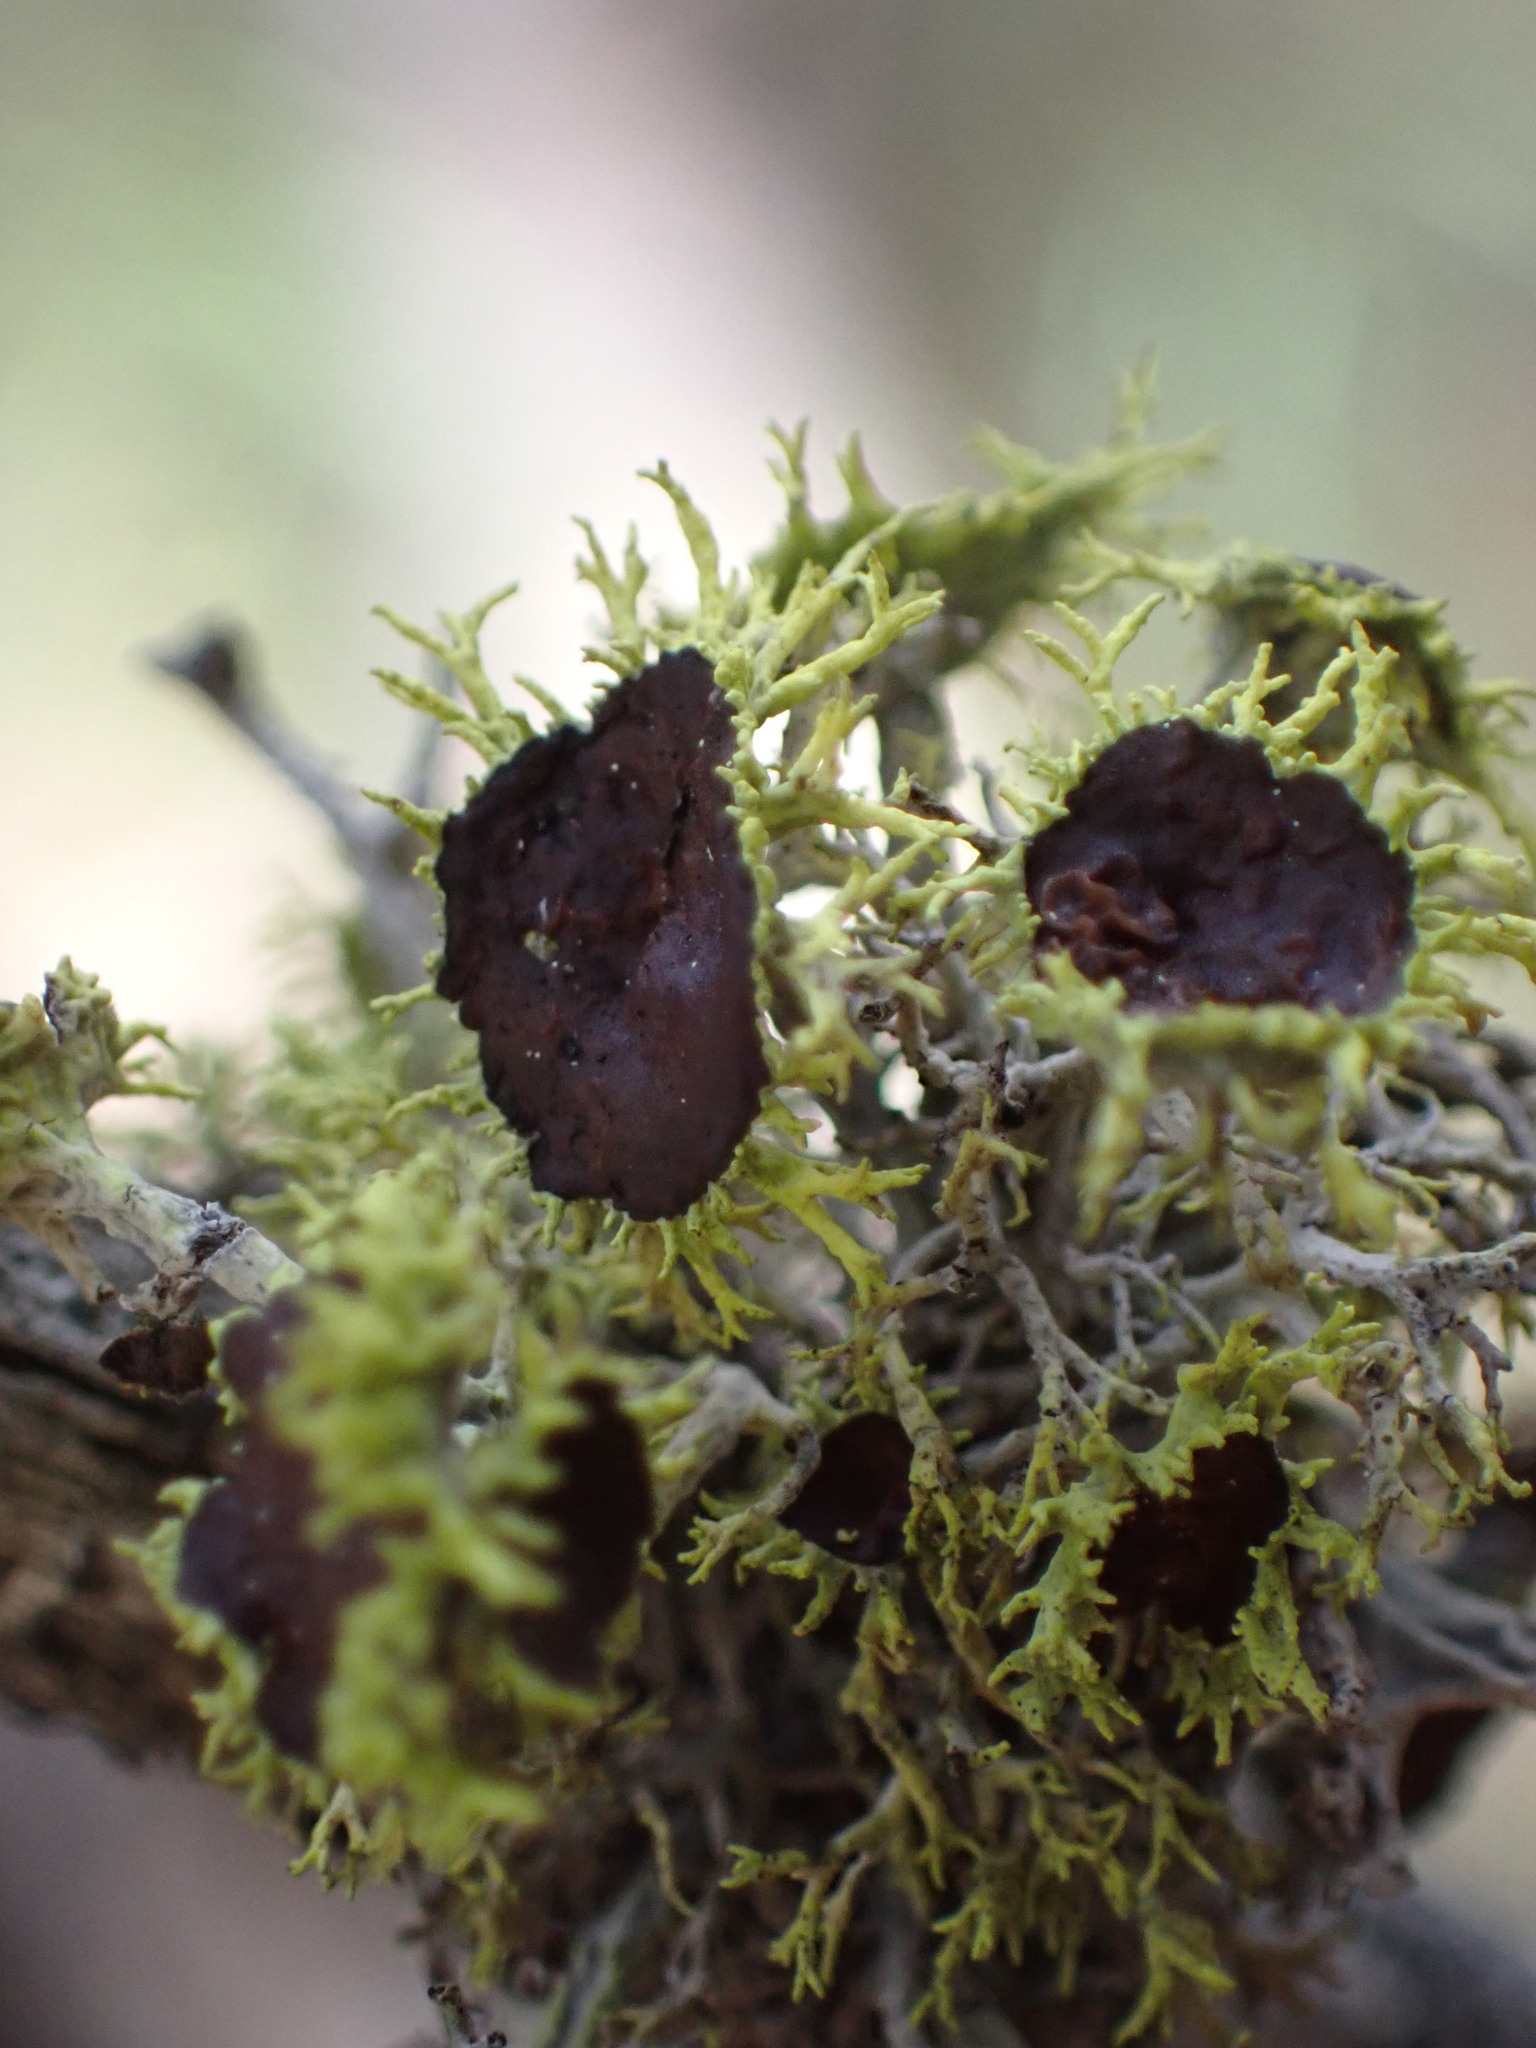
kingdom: Fungi
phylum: Ascomycota
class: Lecanoromycetes
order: Lecanorales
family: Parmeliaceae
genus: Letharia
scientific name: Letharia columbiana
